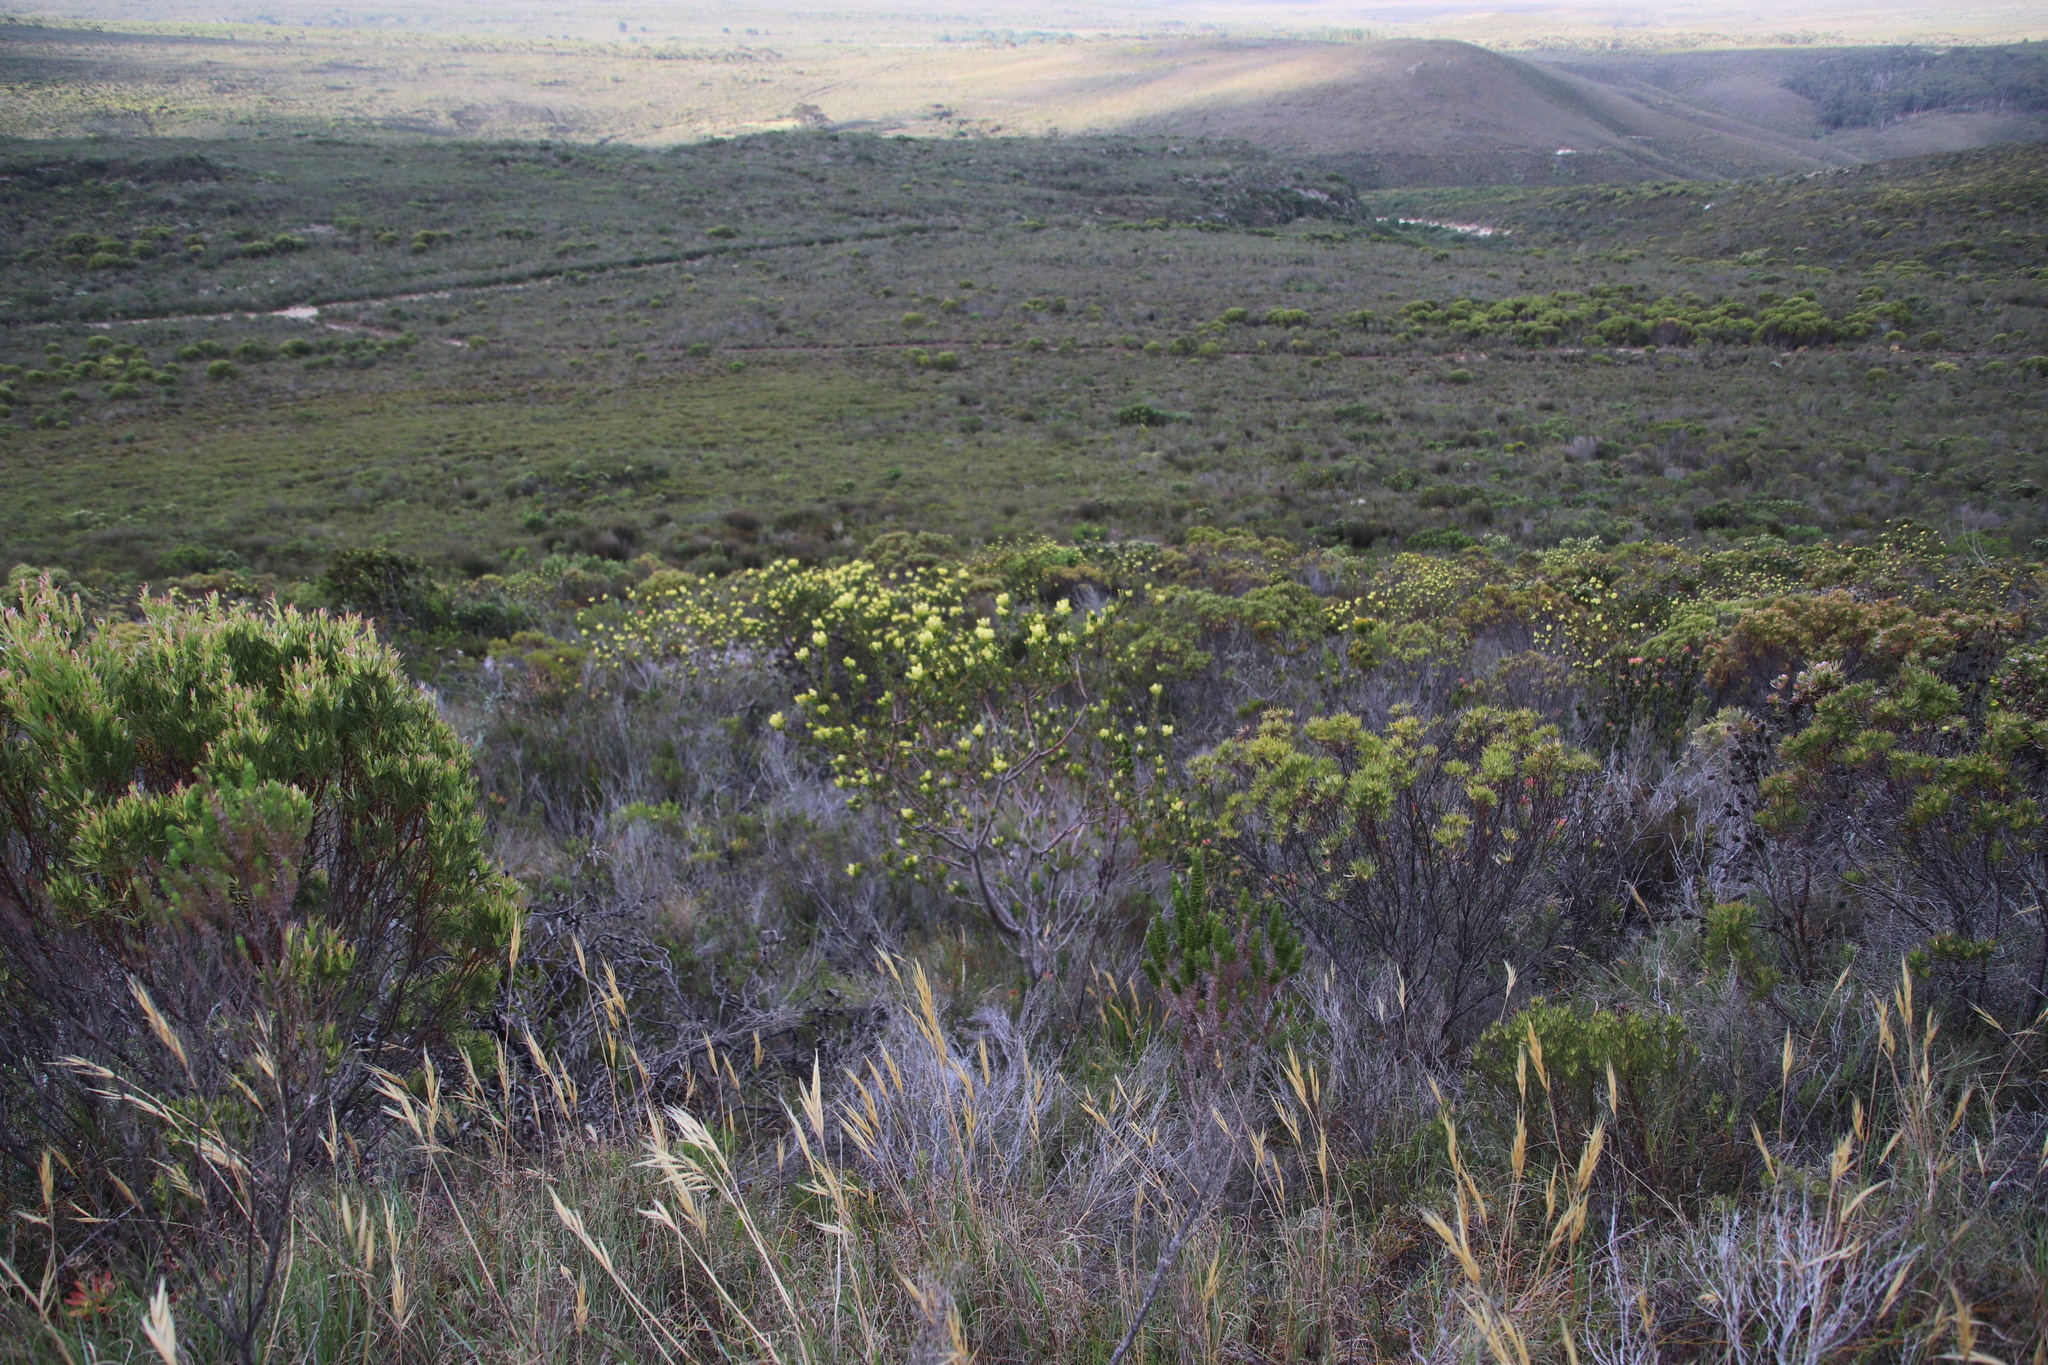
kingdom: Plantae
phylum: Tracheophyta
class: Magnoliopsida
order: Proteales
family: Proteaceae
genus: Aulax
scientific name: Aulax umbellata
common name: Broad-leaf featherbush
